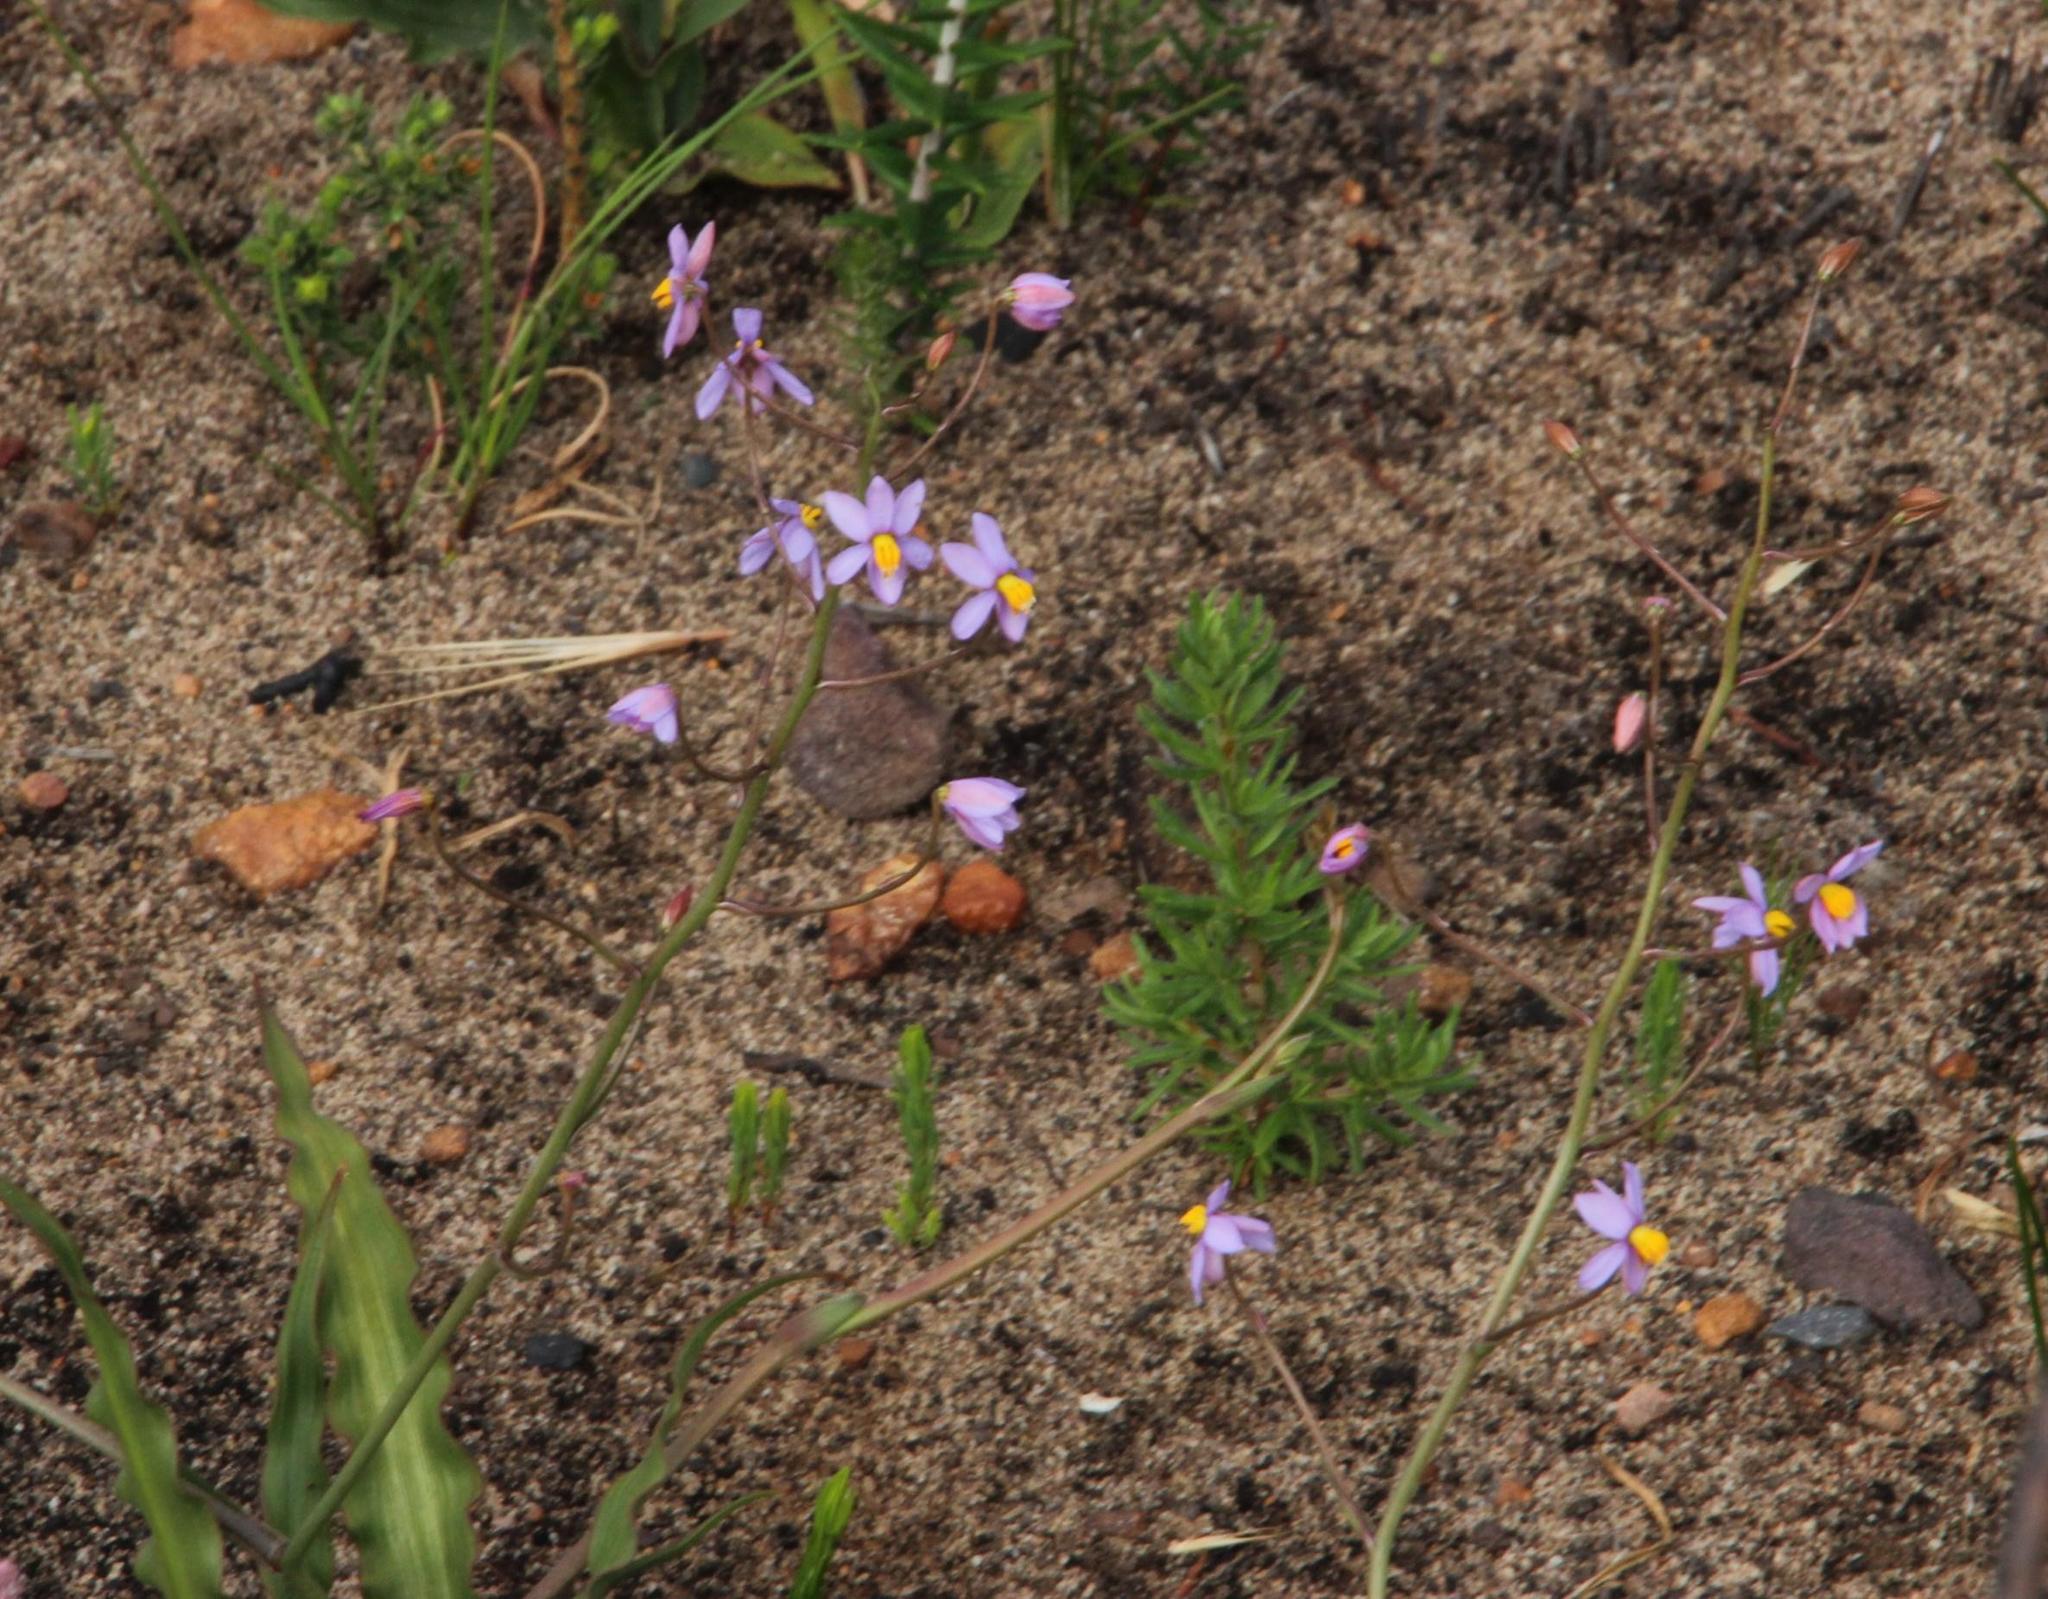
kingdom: Plantae
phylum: Tracheophyta
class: Liliopsida
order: Asparagales
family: Tecophilaeaceae
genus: Cyanella
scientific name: Cyanella hyacinthoides
